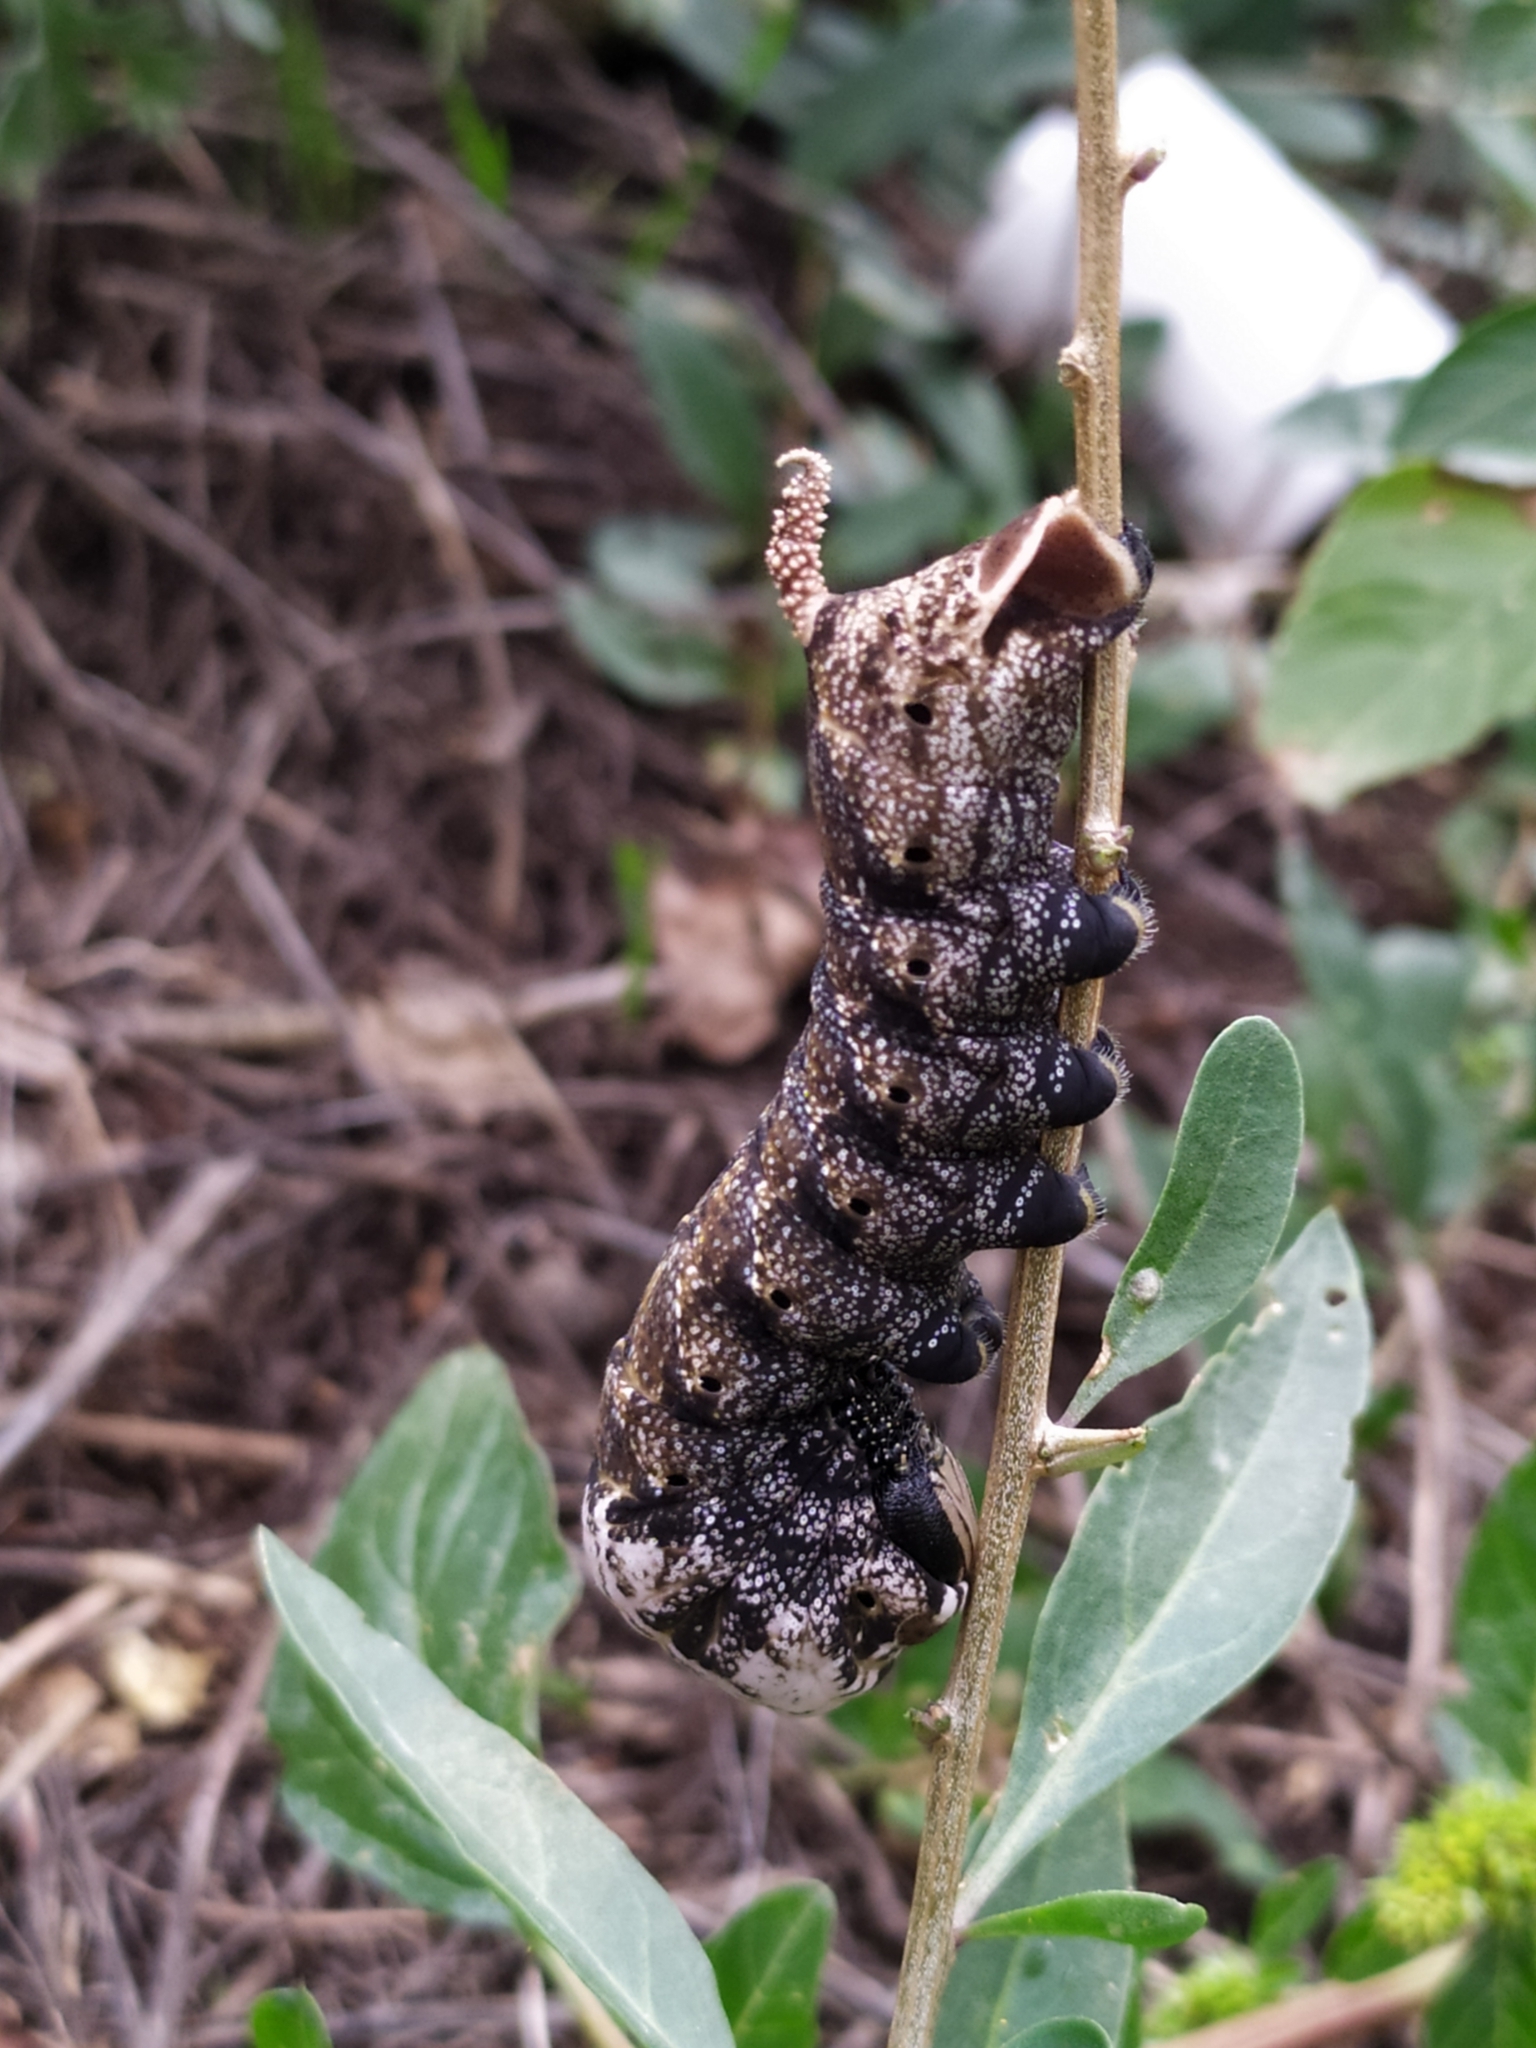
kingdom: Animalia
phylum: Arthropoda
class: Insecta
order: Lepidoptera
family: Sphingidae
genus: Acherontia
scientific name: Acherontia atropos
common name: Death's-head hawk moth
